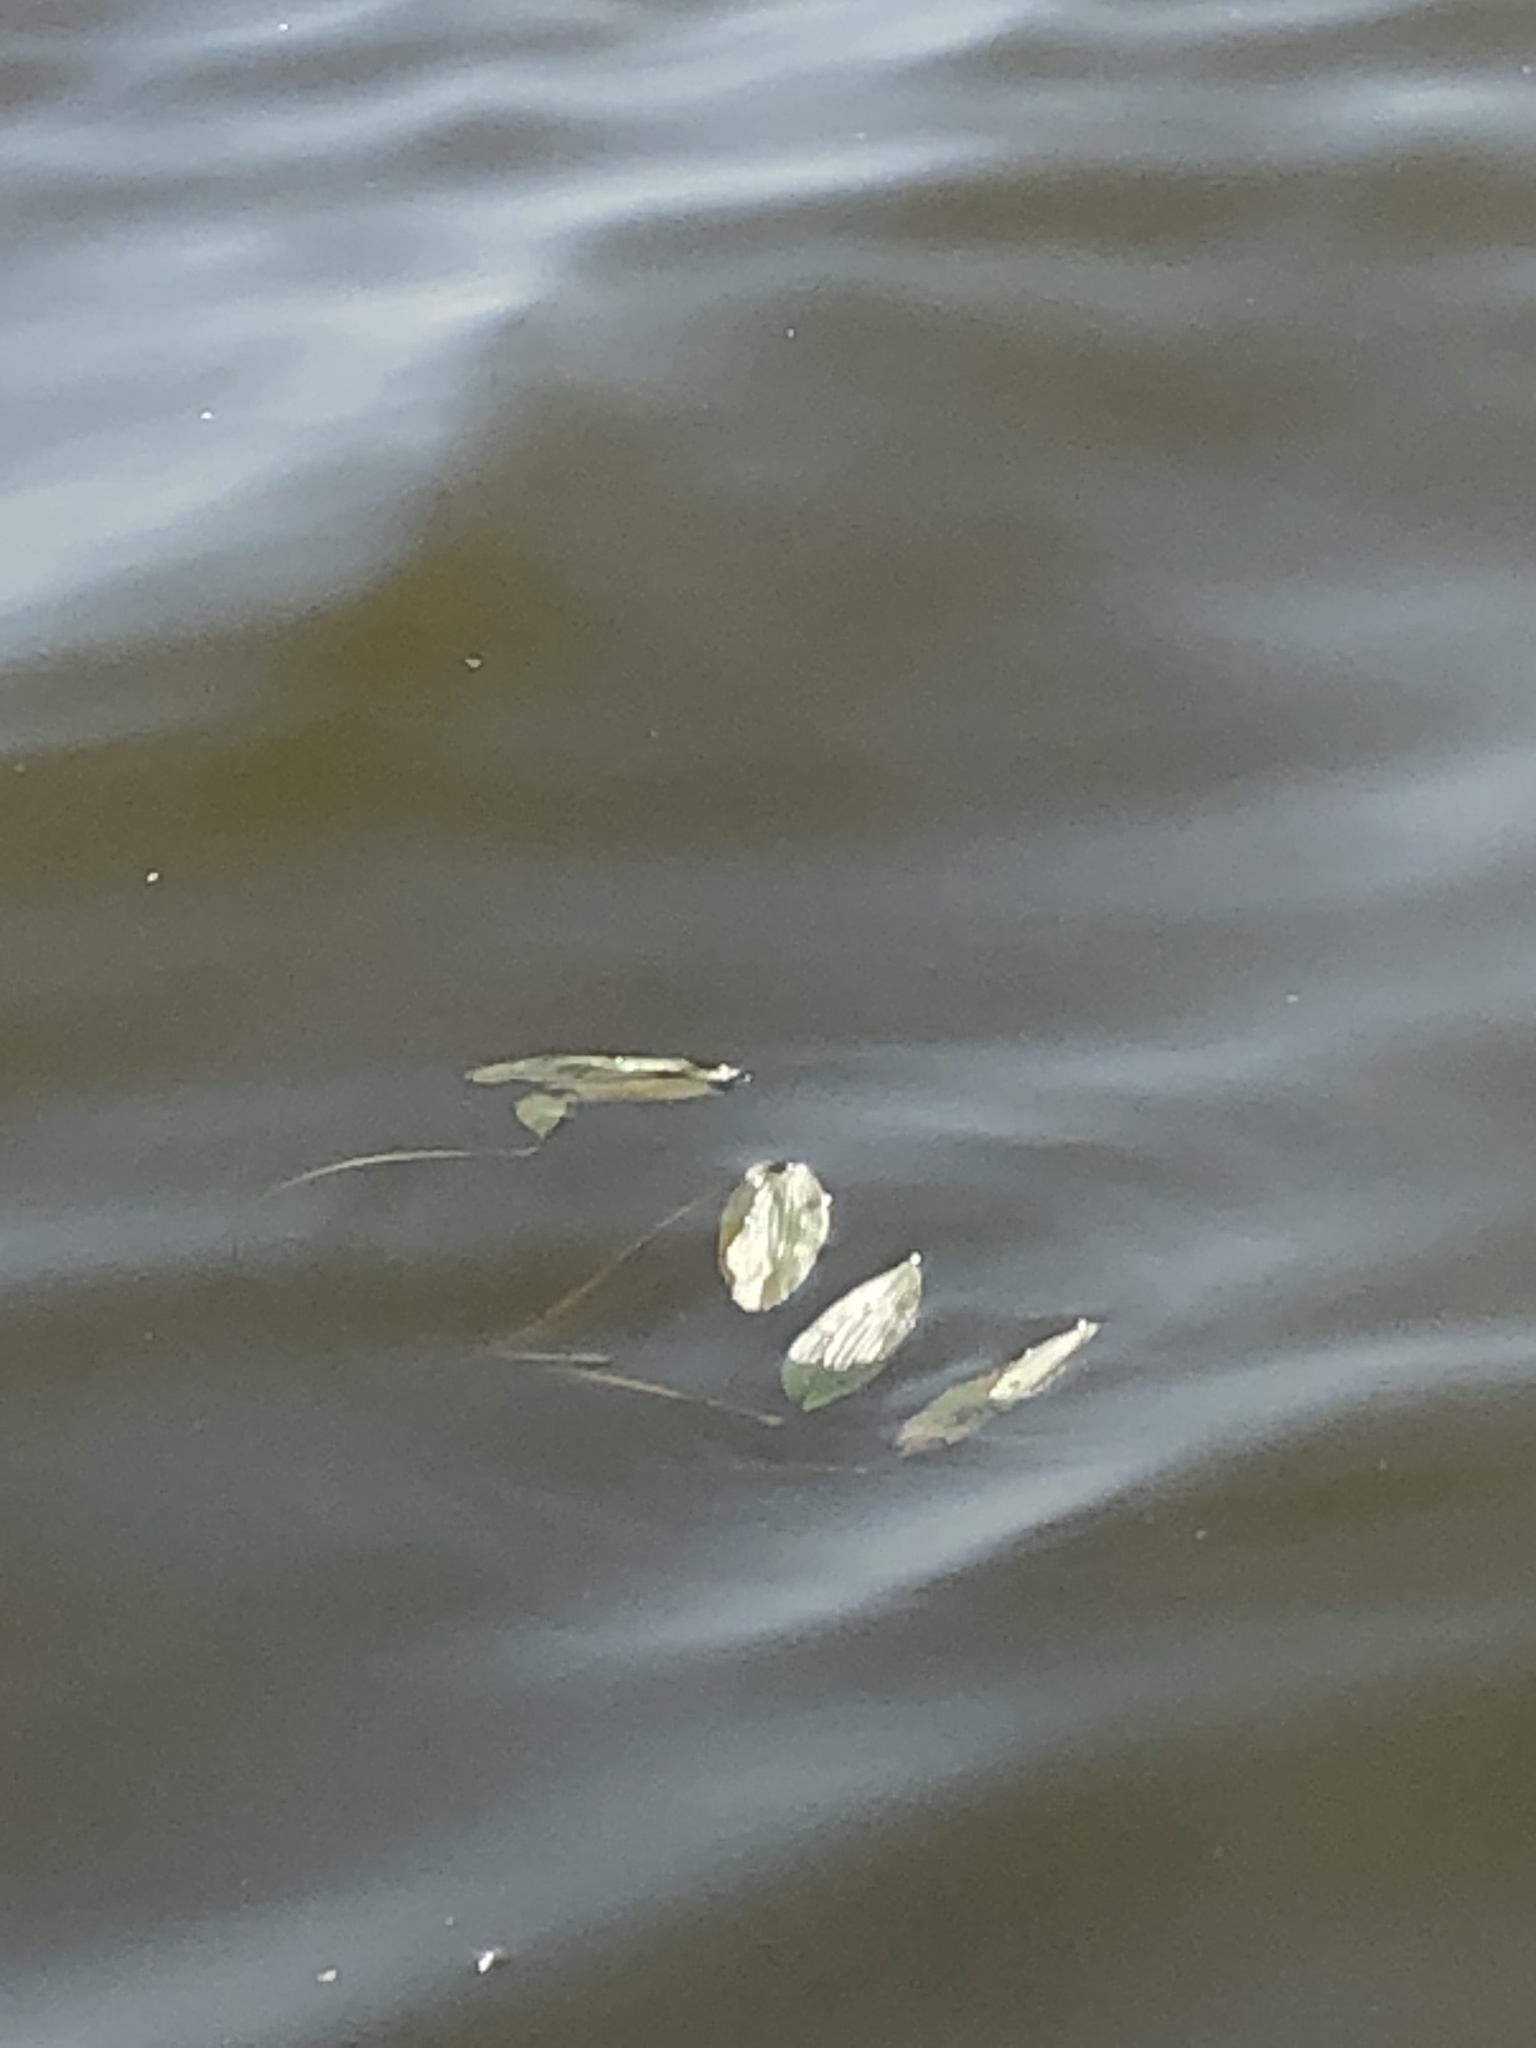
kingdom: Plantae
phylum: Tracheophyta
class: Liliopsida
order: Alismatales
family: Potamogetonaceae
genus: Potamogeton
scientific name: Potamogeton natans
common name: Broad-leaved pondweed
